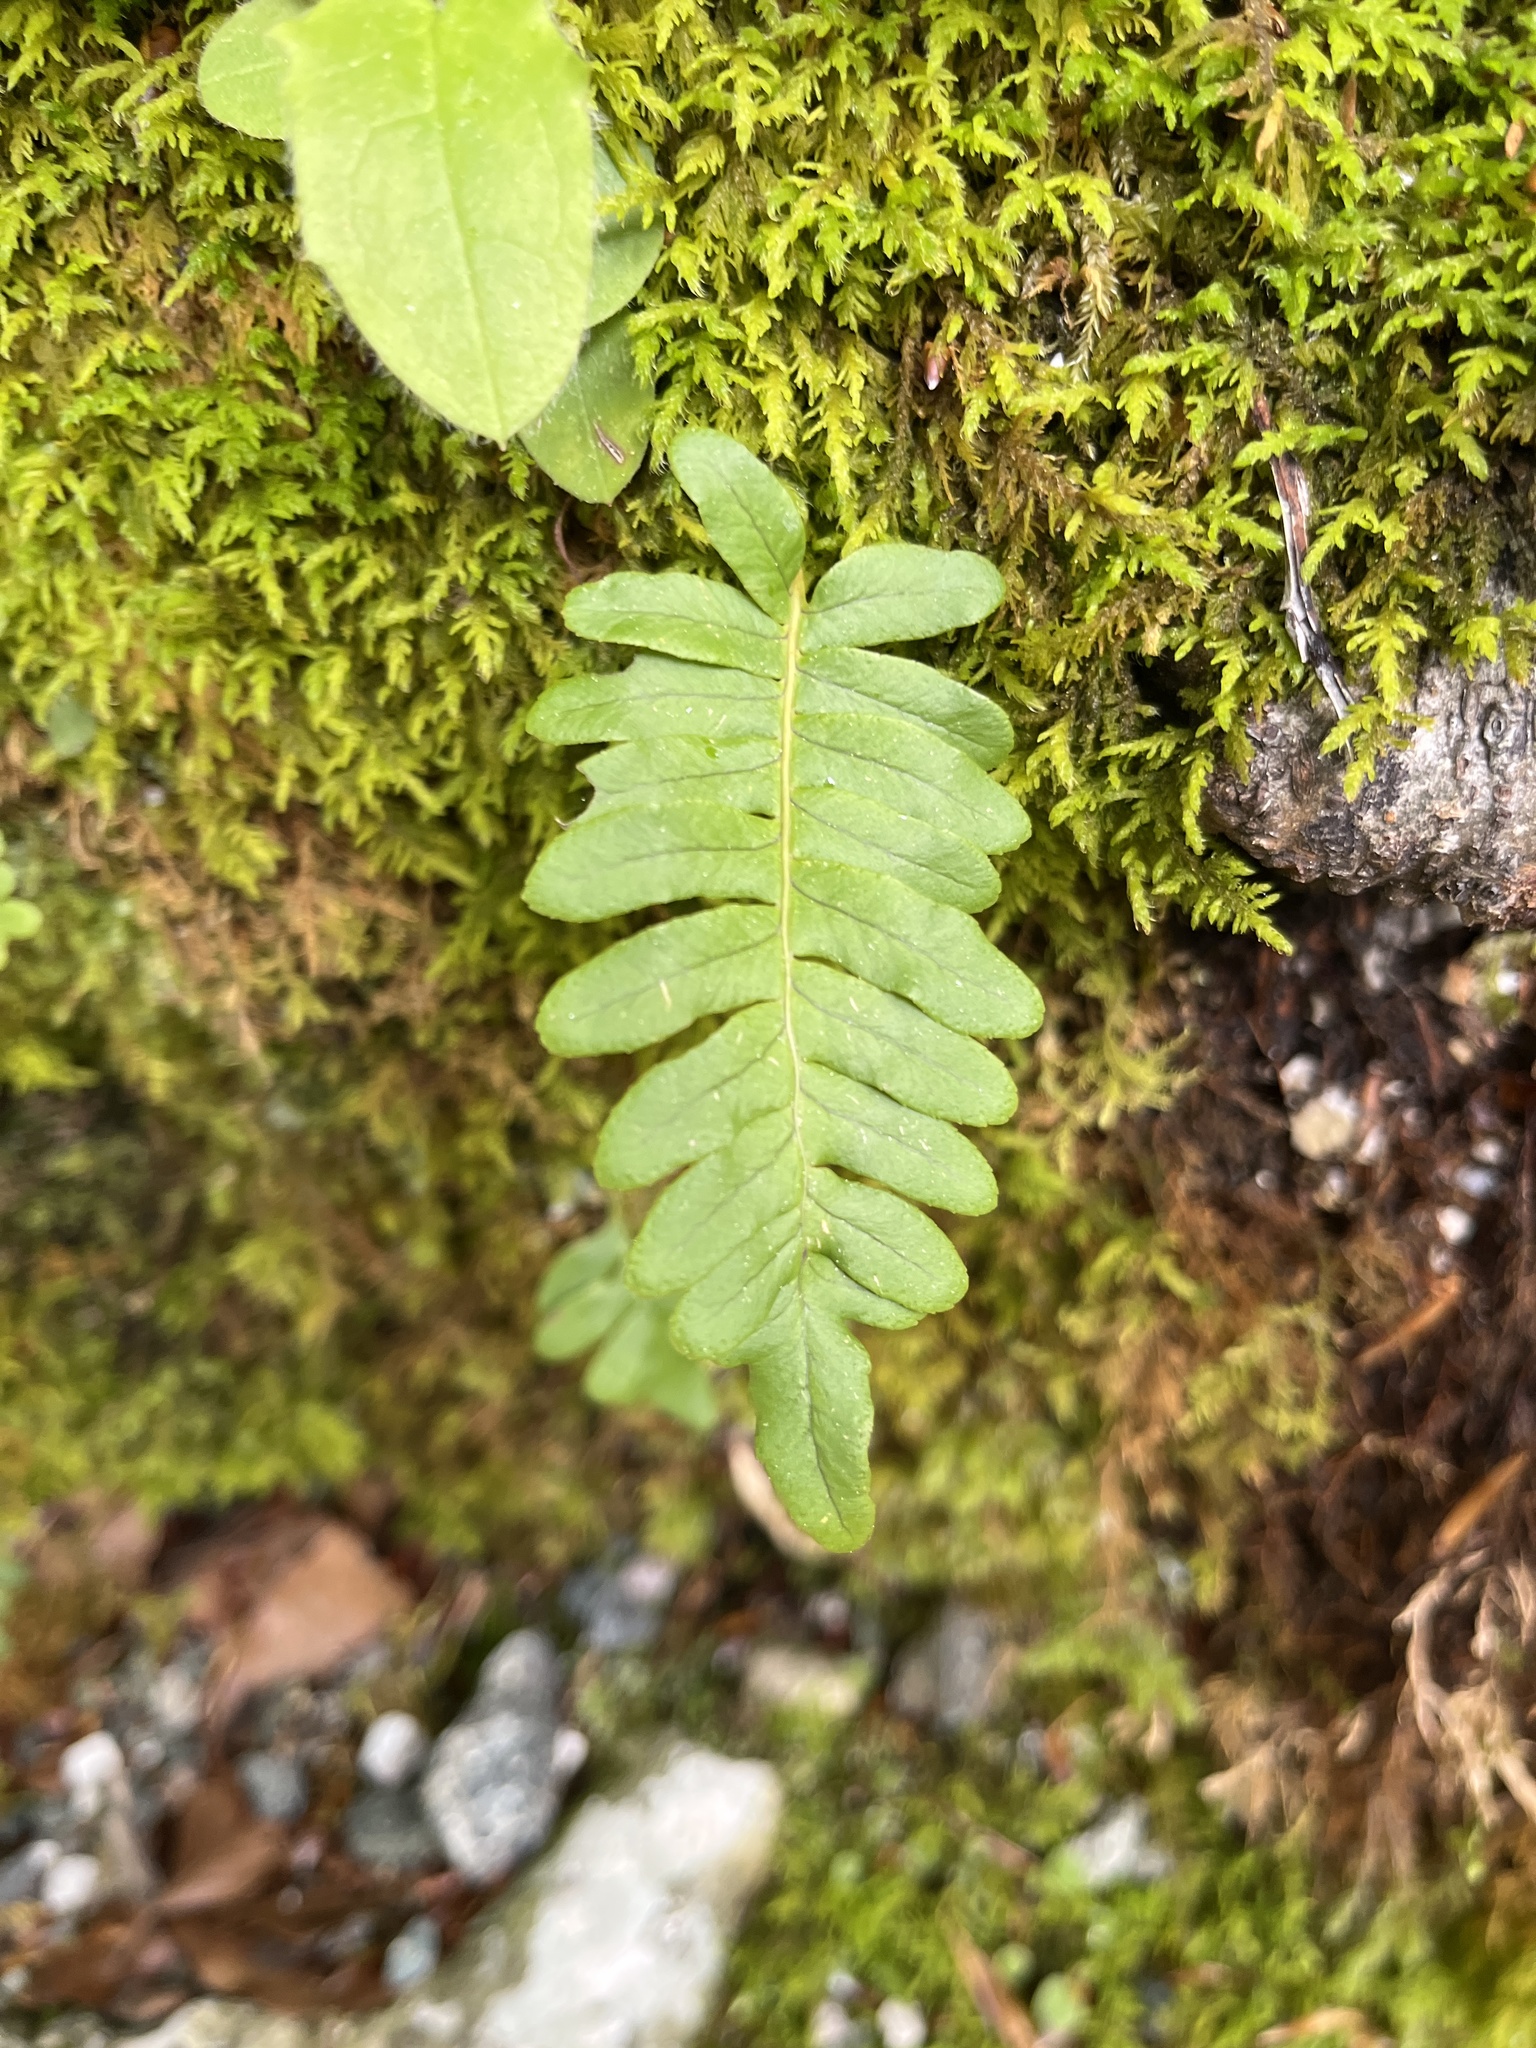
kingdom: Plantae
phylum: Tracheophyta
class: Polypodiopsida
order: Polypodiales
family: Polypodiaceae
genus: Polypodium
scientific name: Polypodium vulgare
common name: Common polypody
